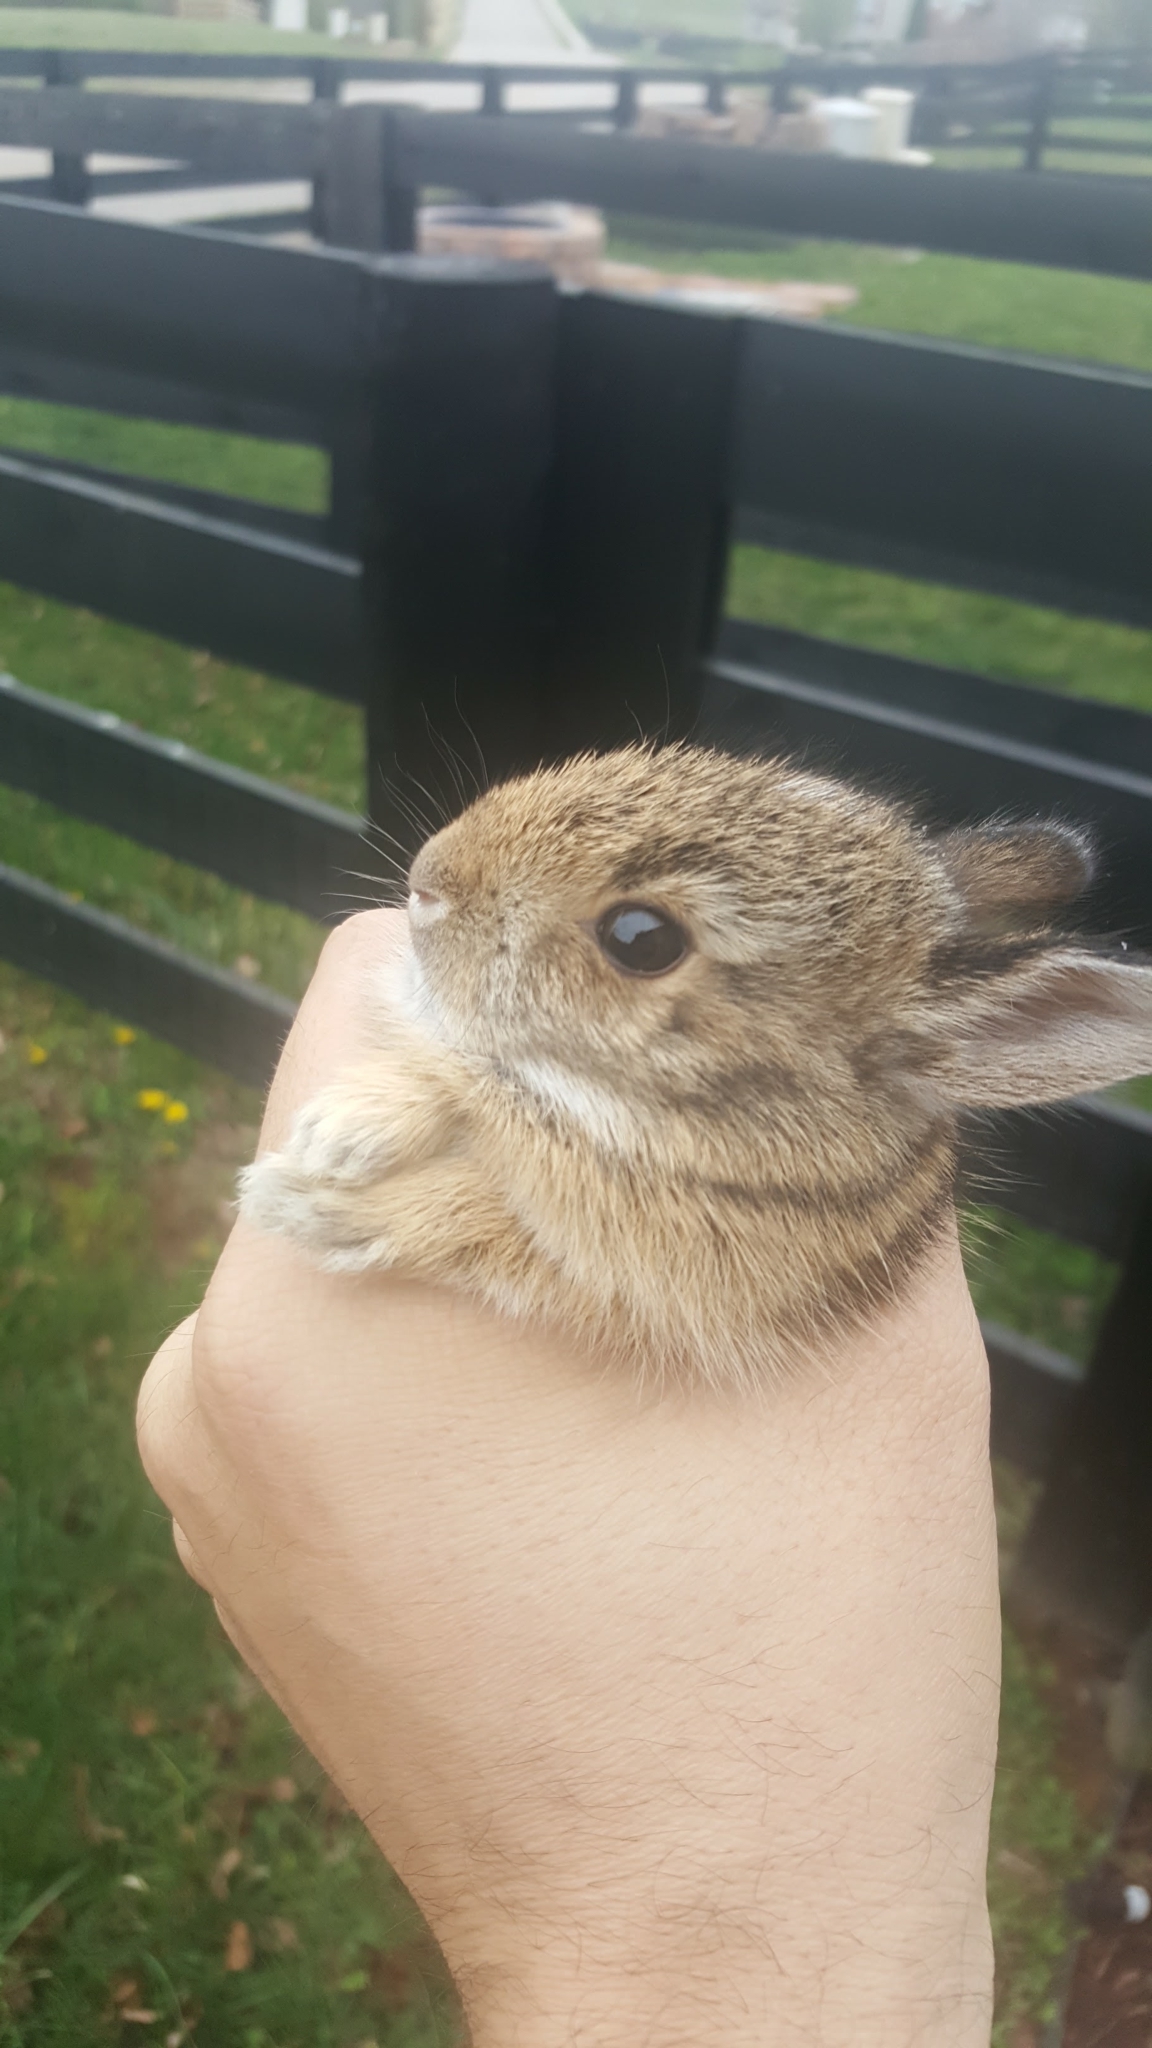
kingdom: Animalia
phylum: Chordata
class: Mammalia
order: Lagomorpha
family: Leporidae
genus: Sylvilagus
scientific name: Sylvilagus floridanus
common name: Eastern cottontail
